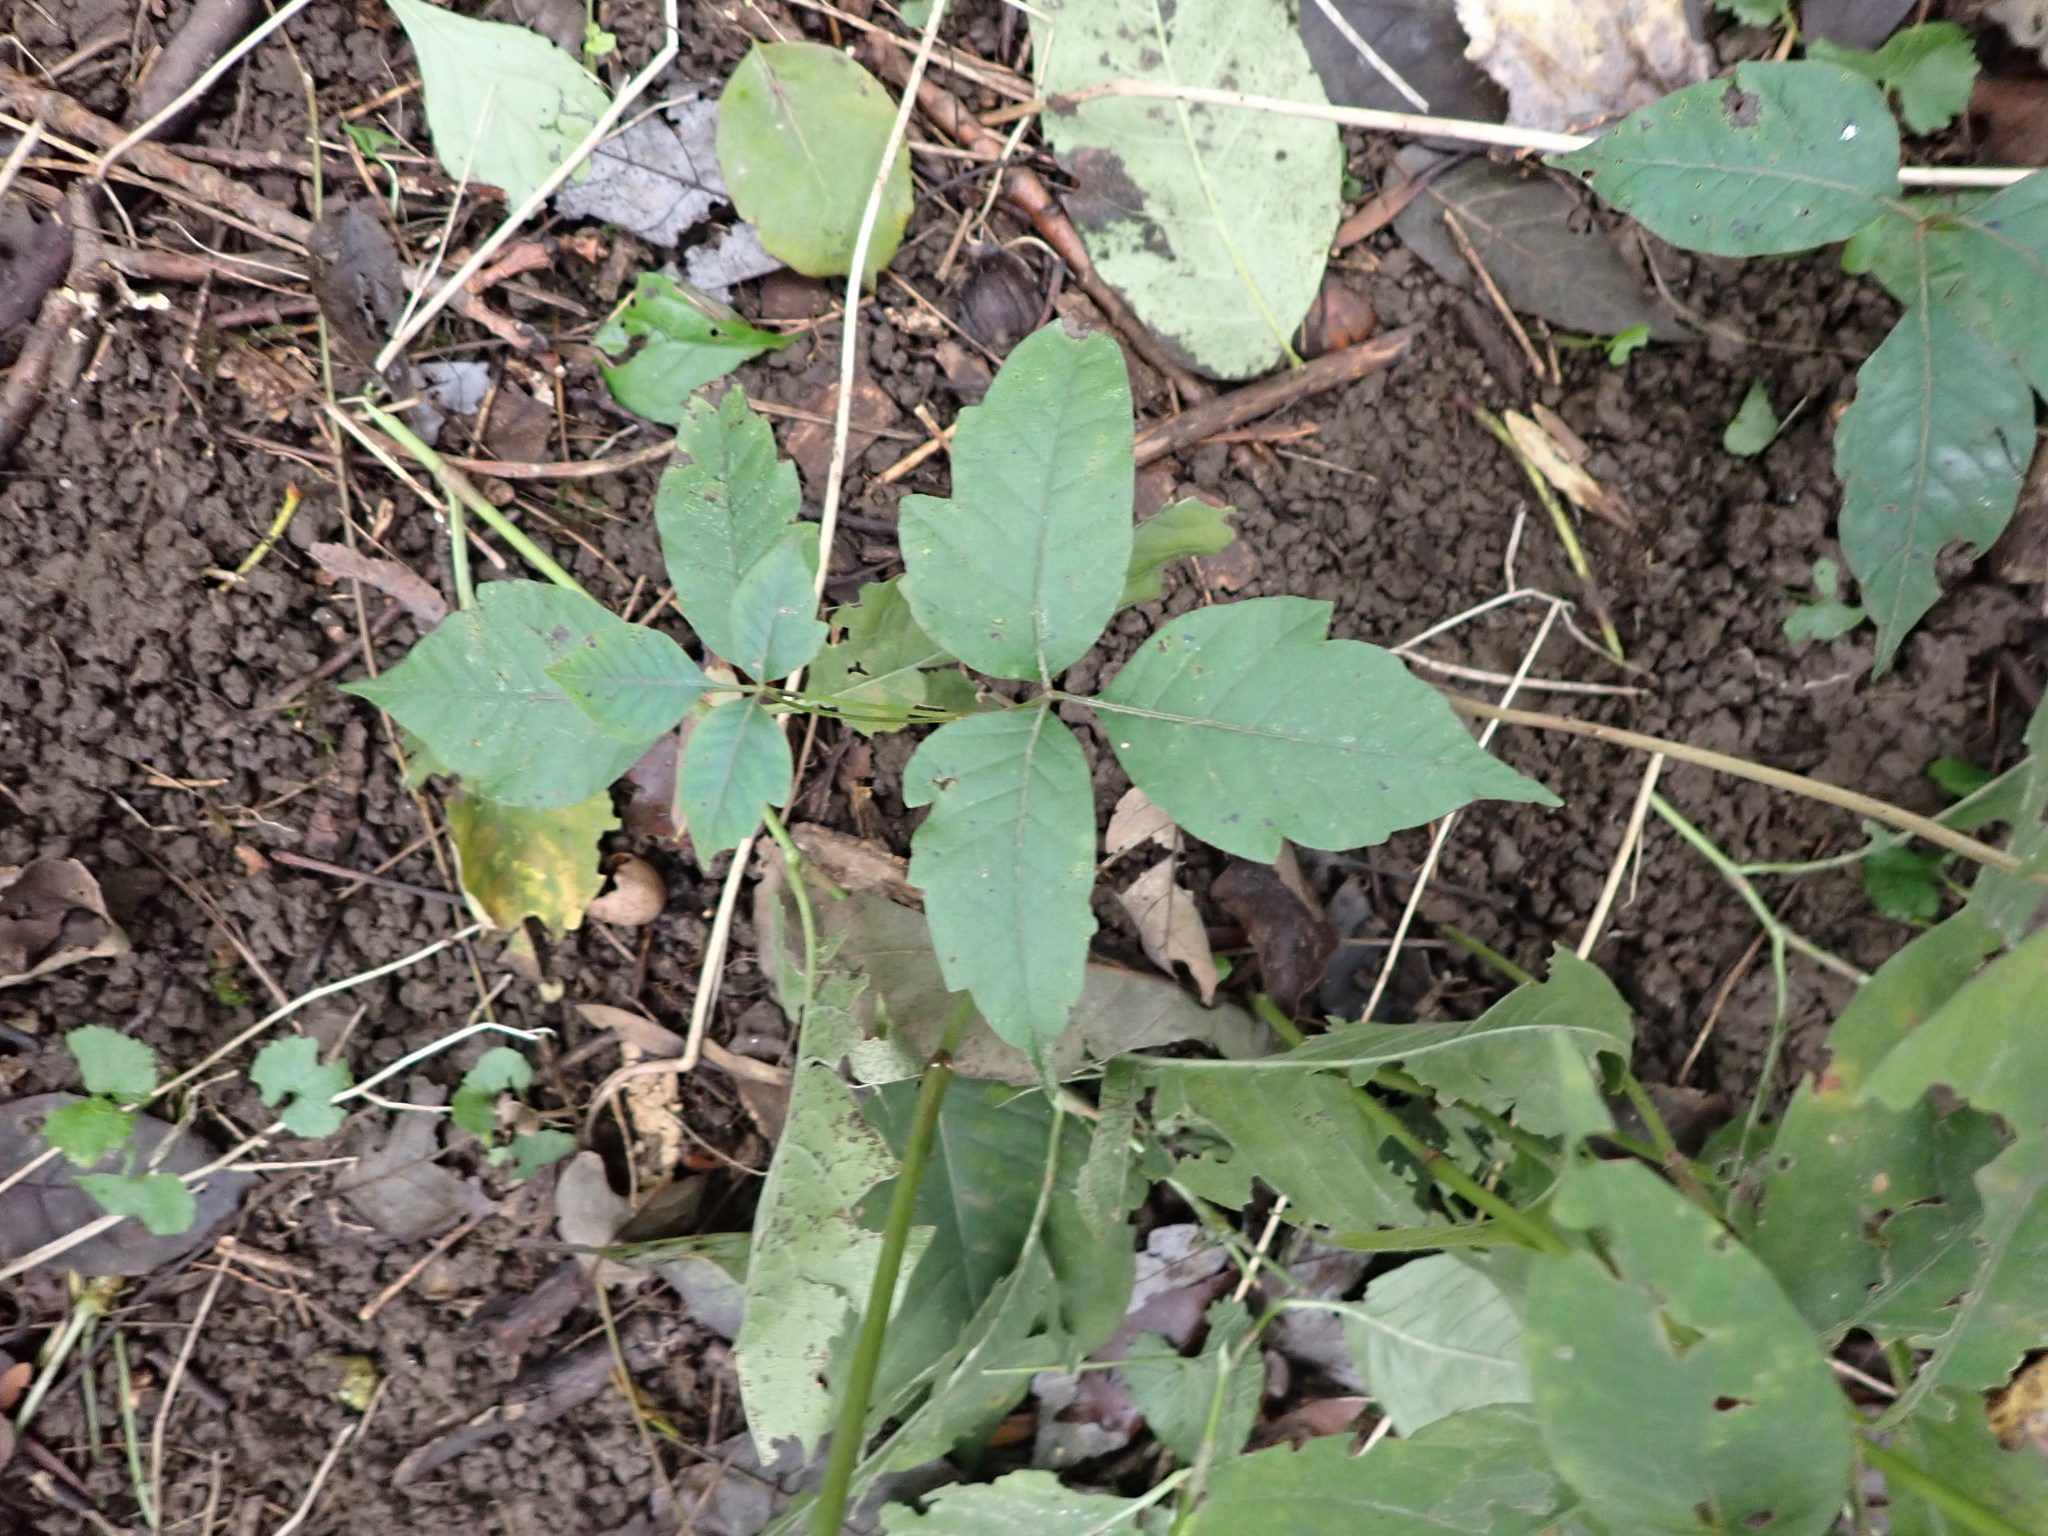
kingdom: Plantae
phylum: Tracheophyta
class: Magnoliopsida
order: Sapindales
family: Anacardiaceae
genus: Toxicodendron
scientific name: Toxicodendron radicans
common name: Poison ivy
